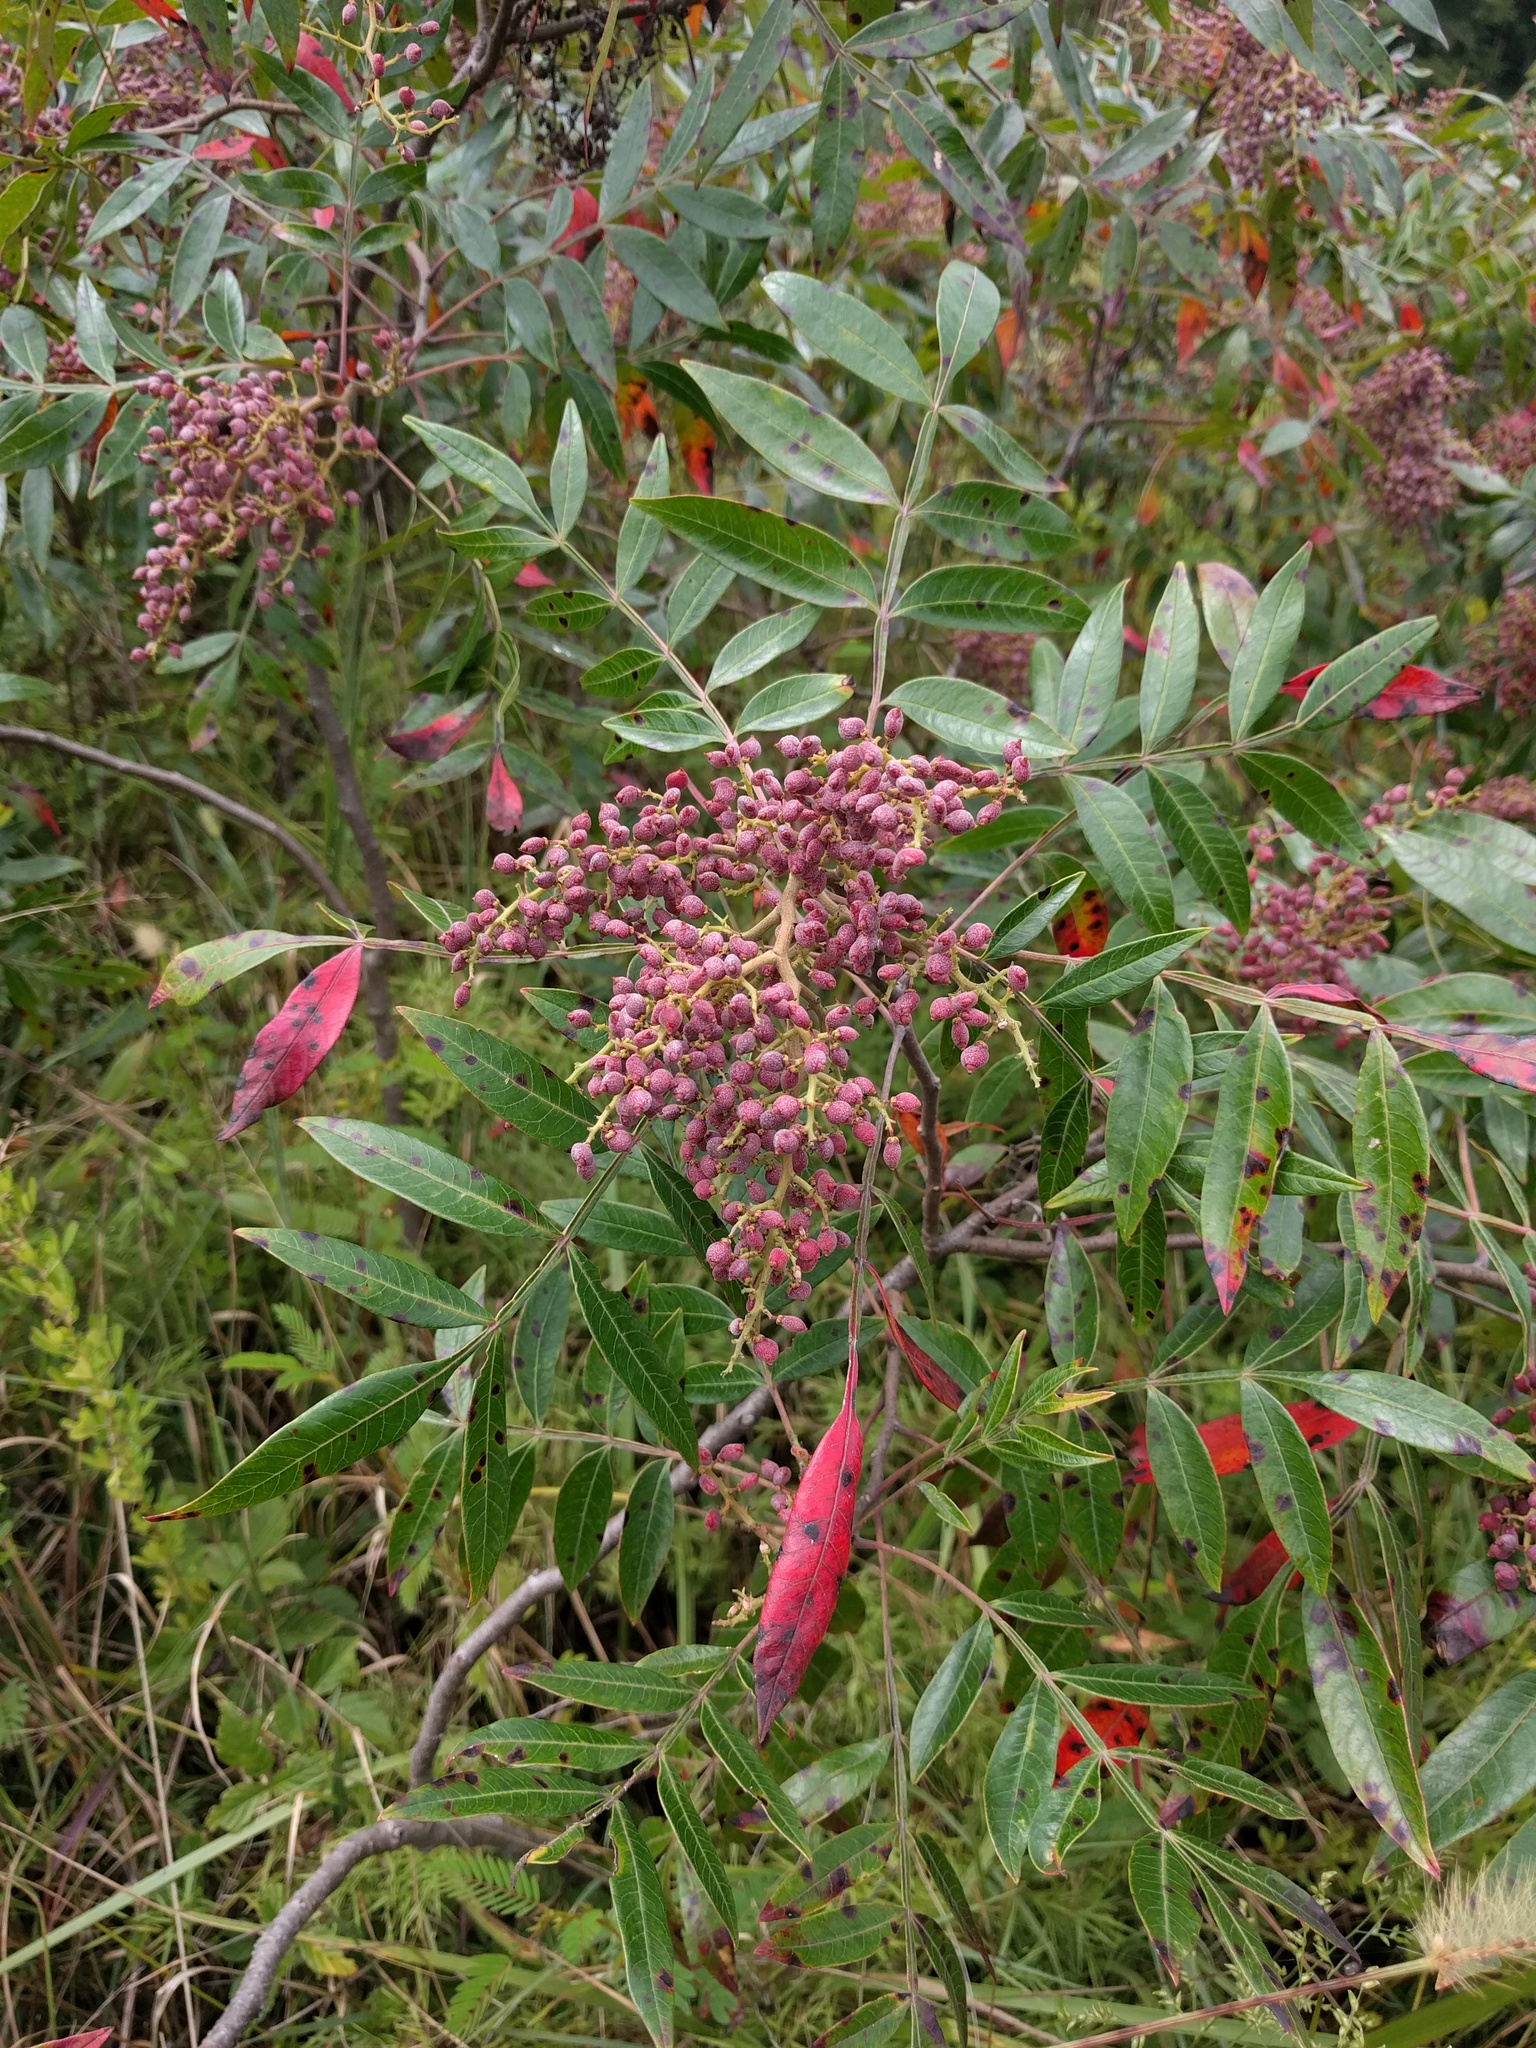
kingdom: Plantae
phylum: Tracheophyta
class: Magnoliopsida
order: Sapindales
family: Anacardiaceae
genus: Rhus
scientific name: Rhus copallina
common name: Shining sumac
